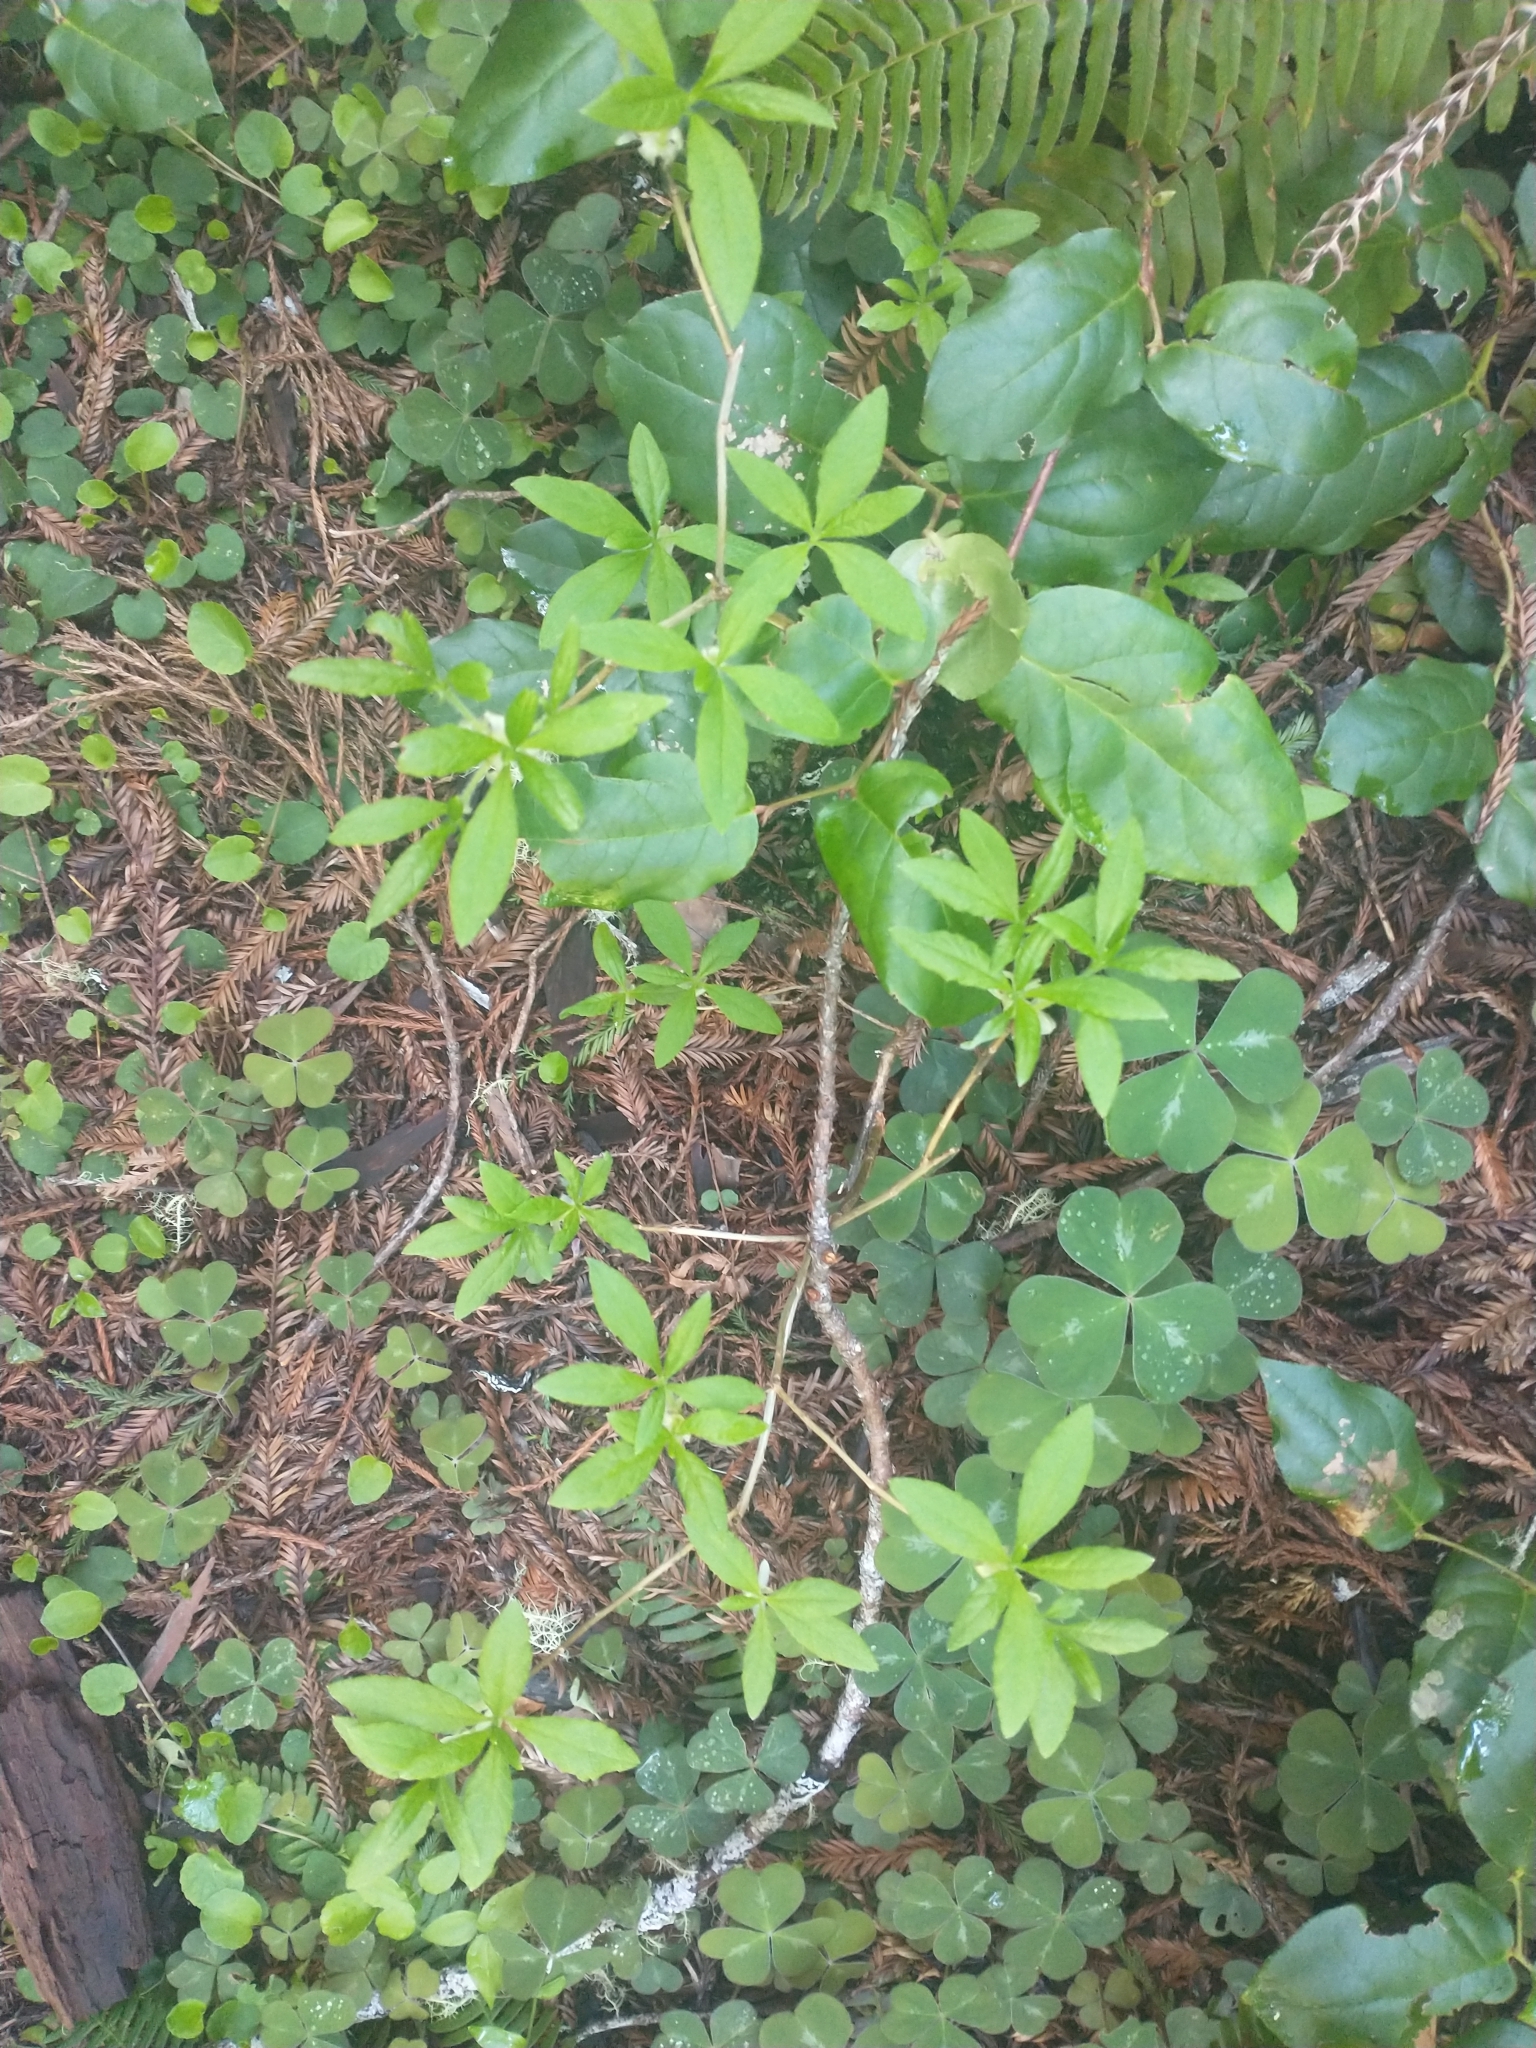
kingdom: Plantae
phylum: Tracheophyta
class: Magnoliopsida
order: Ericales
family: Ericaceae
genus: Rhododendron
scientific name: Rhododendron menziesii
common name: Pacific menziesia
